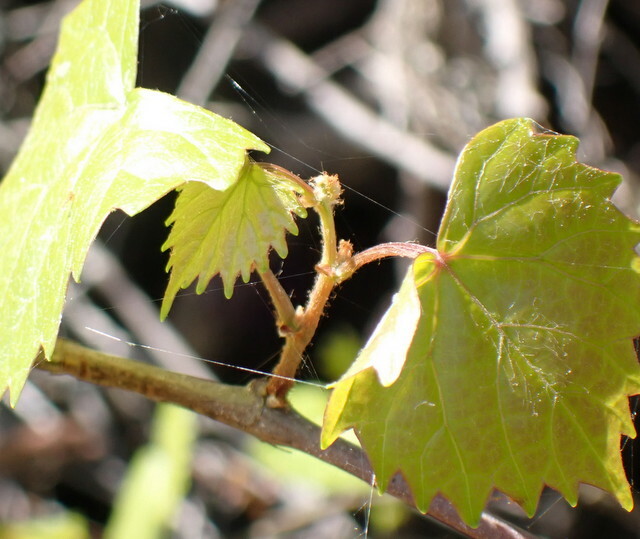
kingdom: Plantae
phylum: Tracheophyta
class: Magnoliopsida
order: Vitales
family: Vitaceae
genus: Vitis
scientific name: Vitis rotundifolia
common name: Muscadine grape
